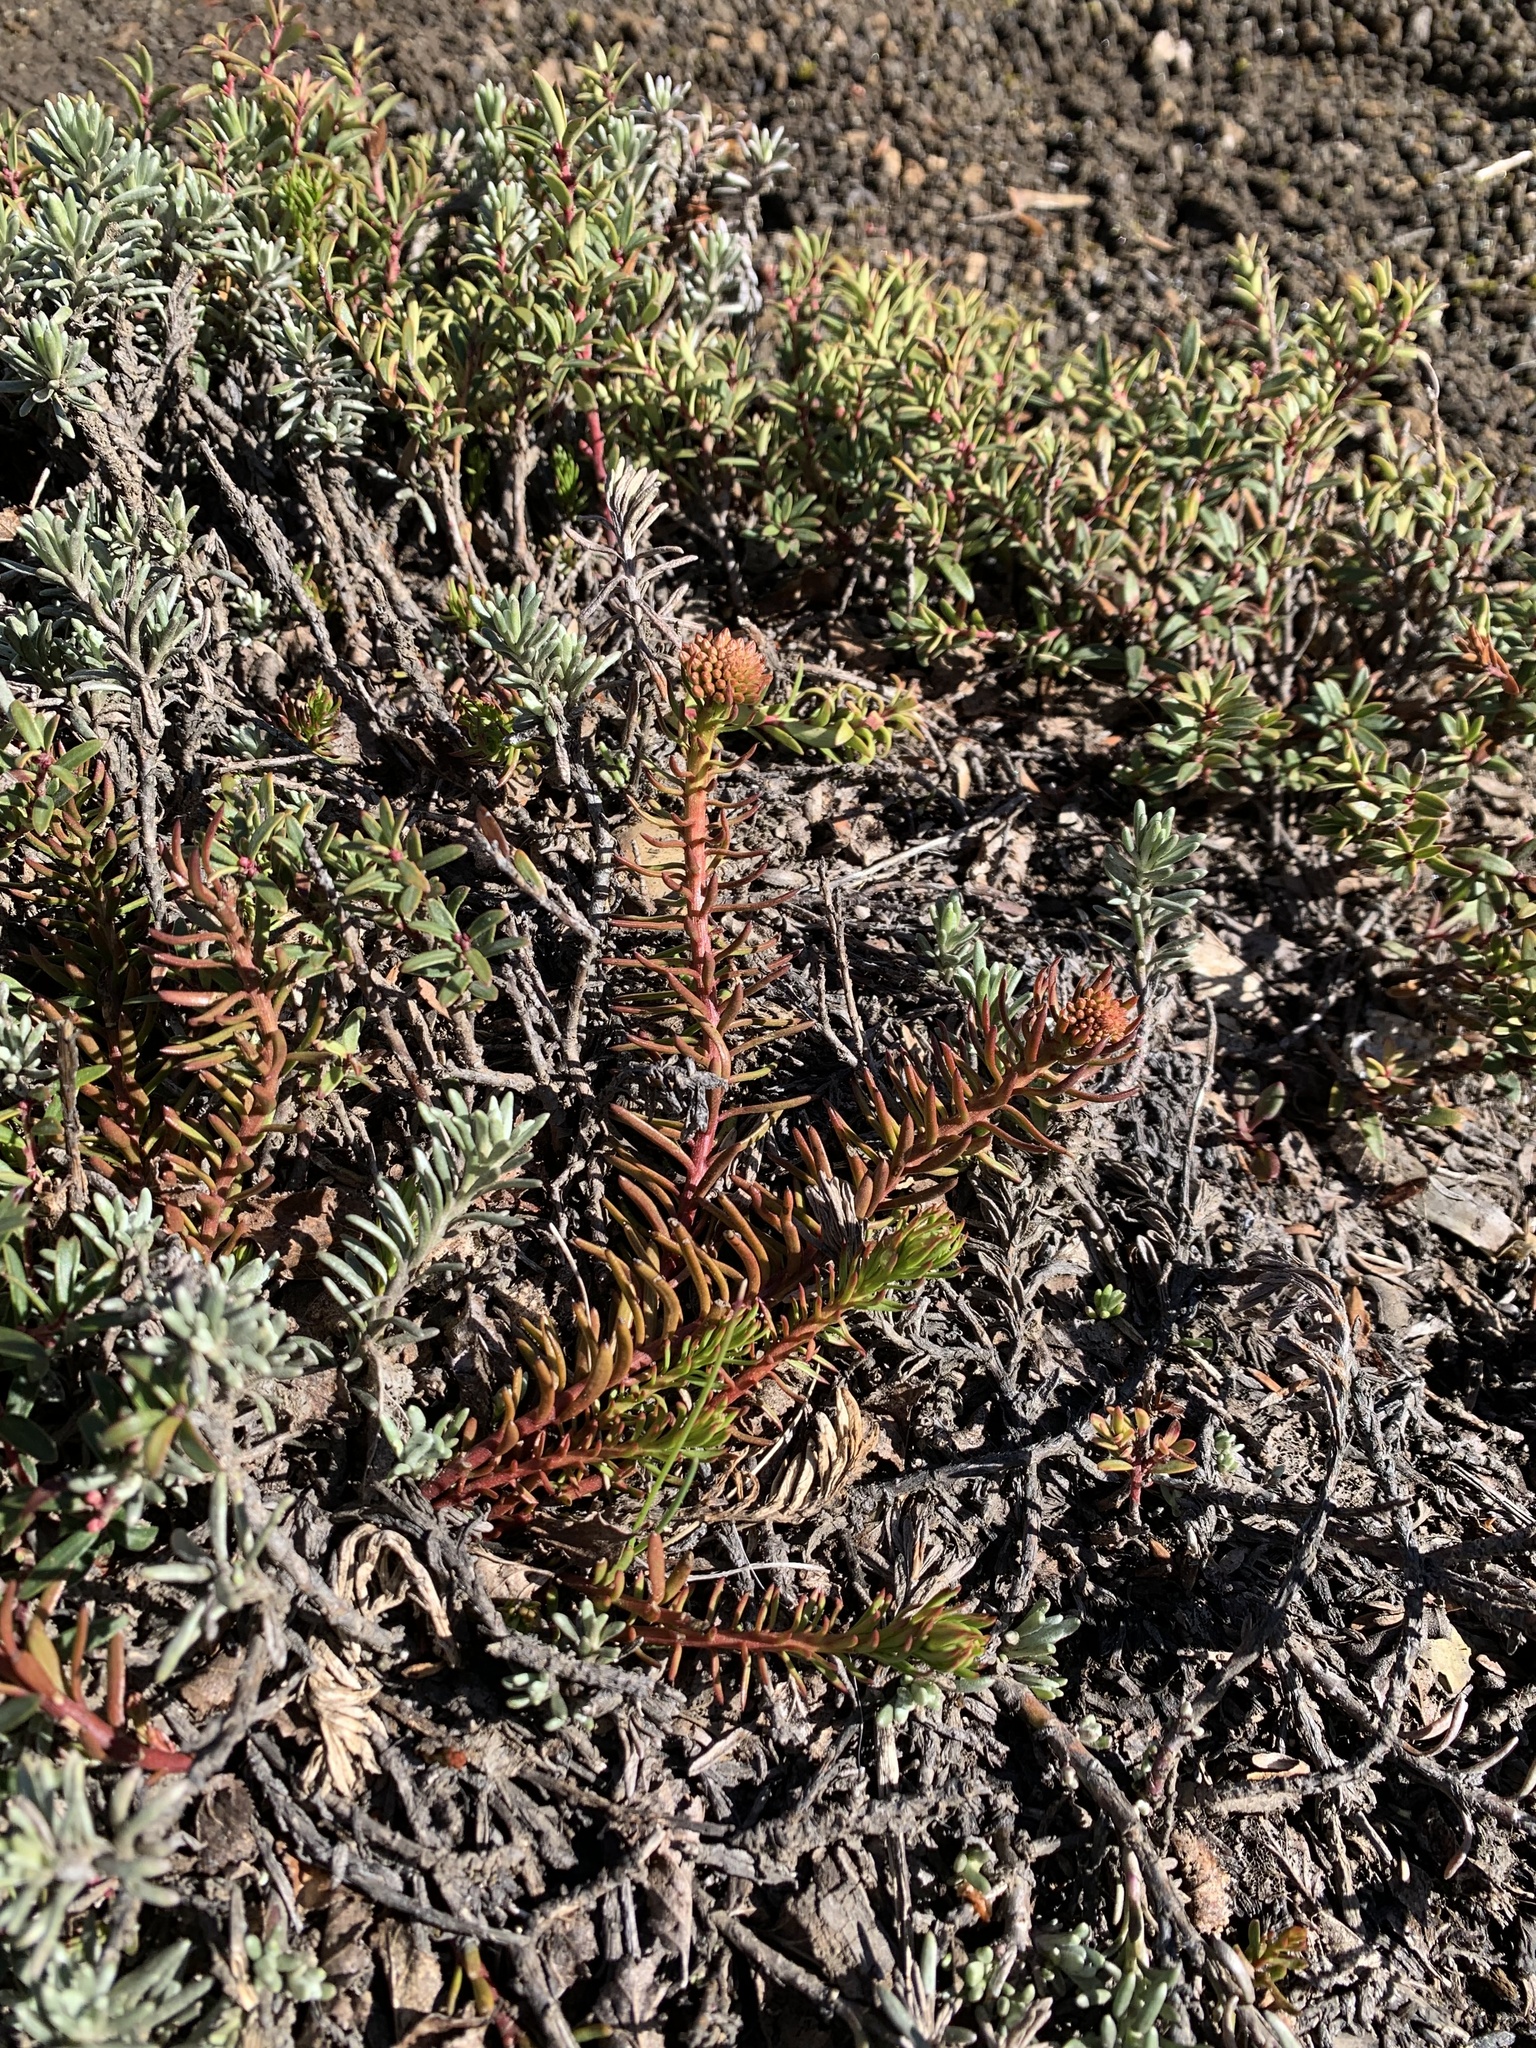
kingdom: Plantae
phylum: Tracheophyta
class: Magnoliopsida
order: Santalales
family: Schoepfiaceae
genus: Quinchamalium
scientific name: Quinchamalium chilense
